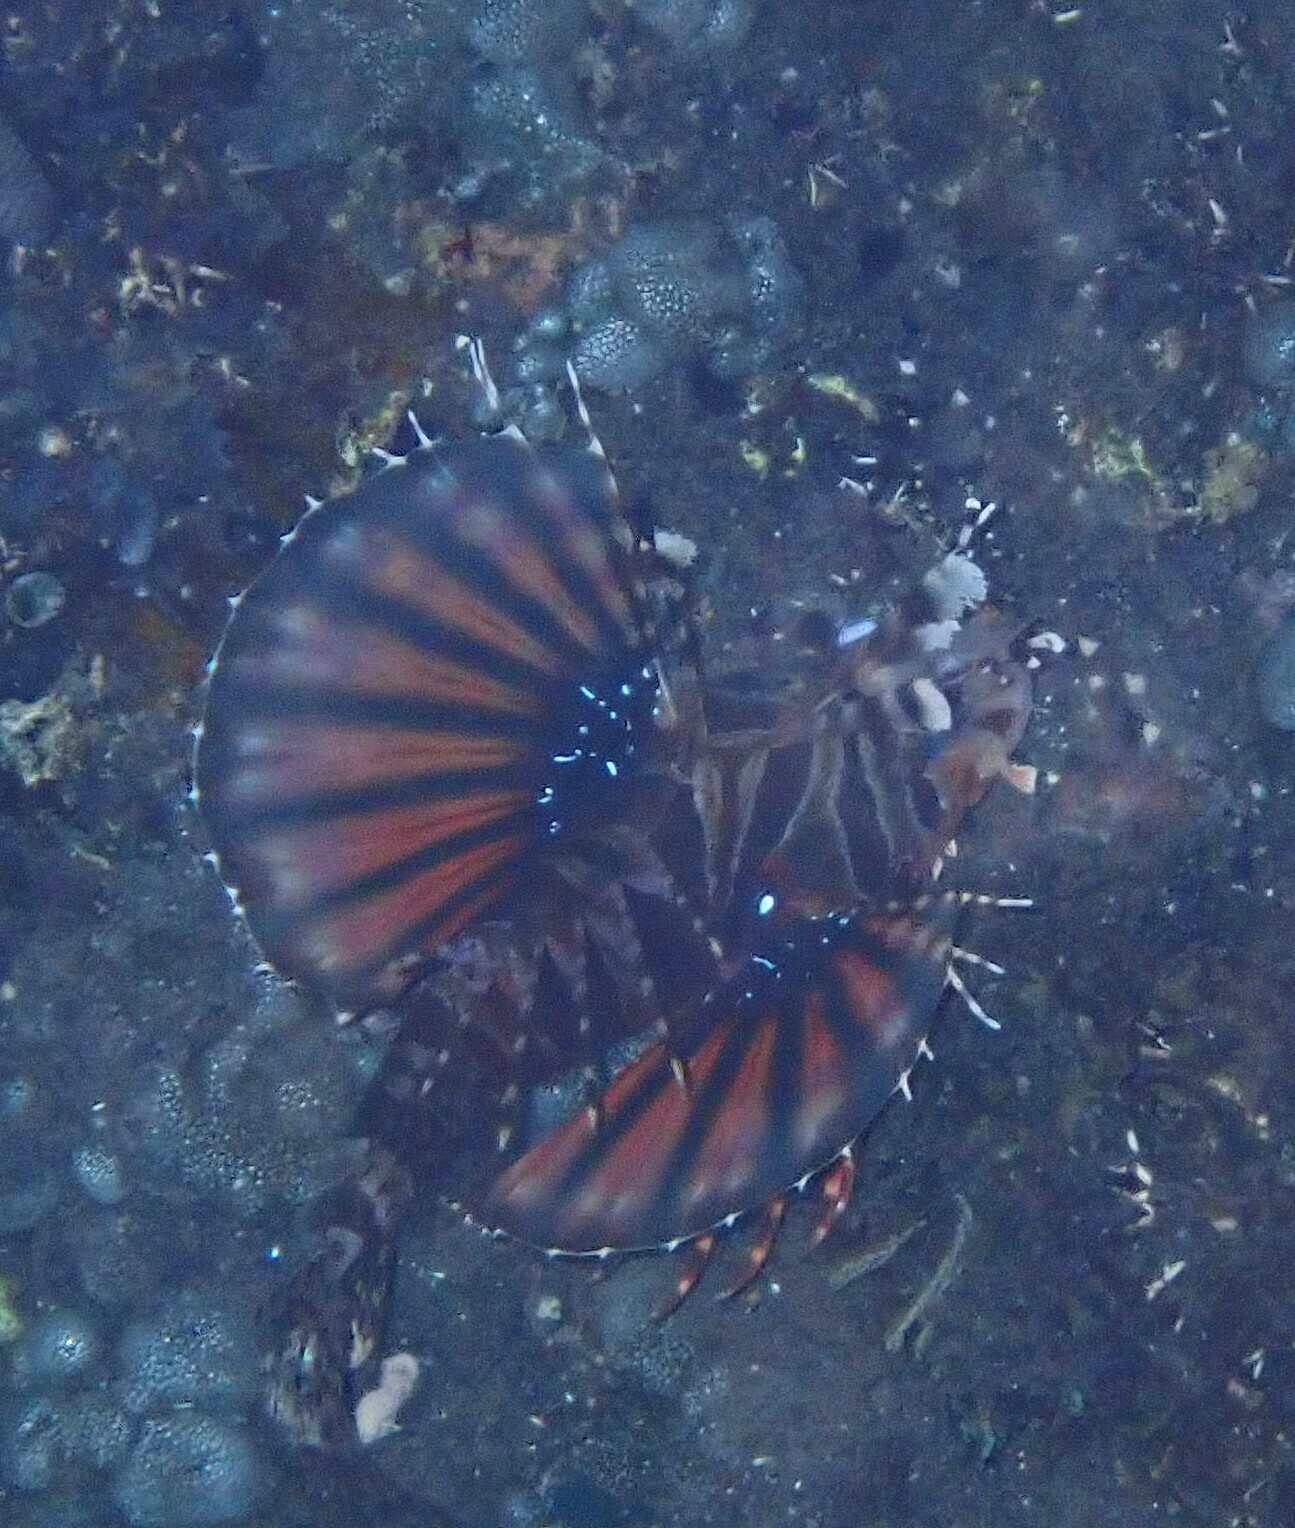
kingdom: Animalia
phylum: Chordata
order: Scorpaeniformes
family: Scorpaenidae
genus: Dendrochirus
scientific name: Dendrochirus zebra
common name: Zebra lionfish
